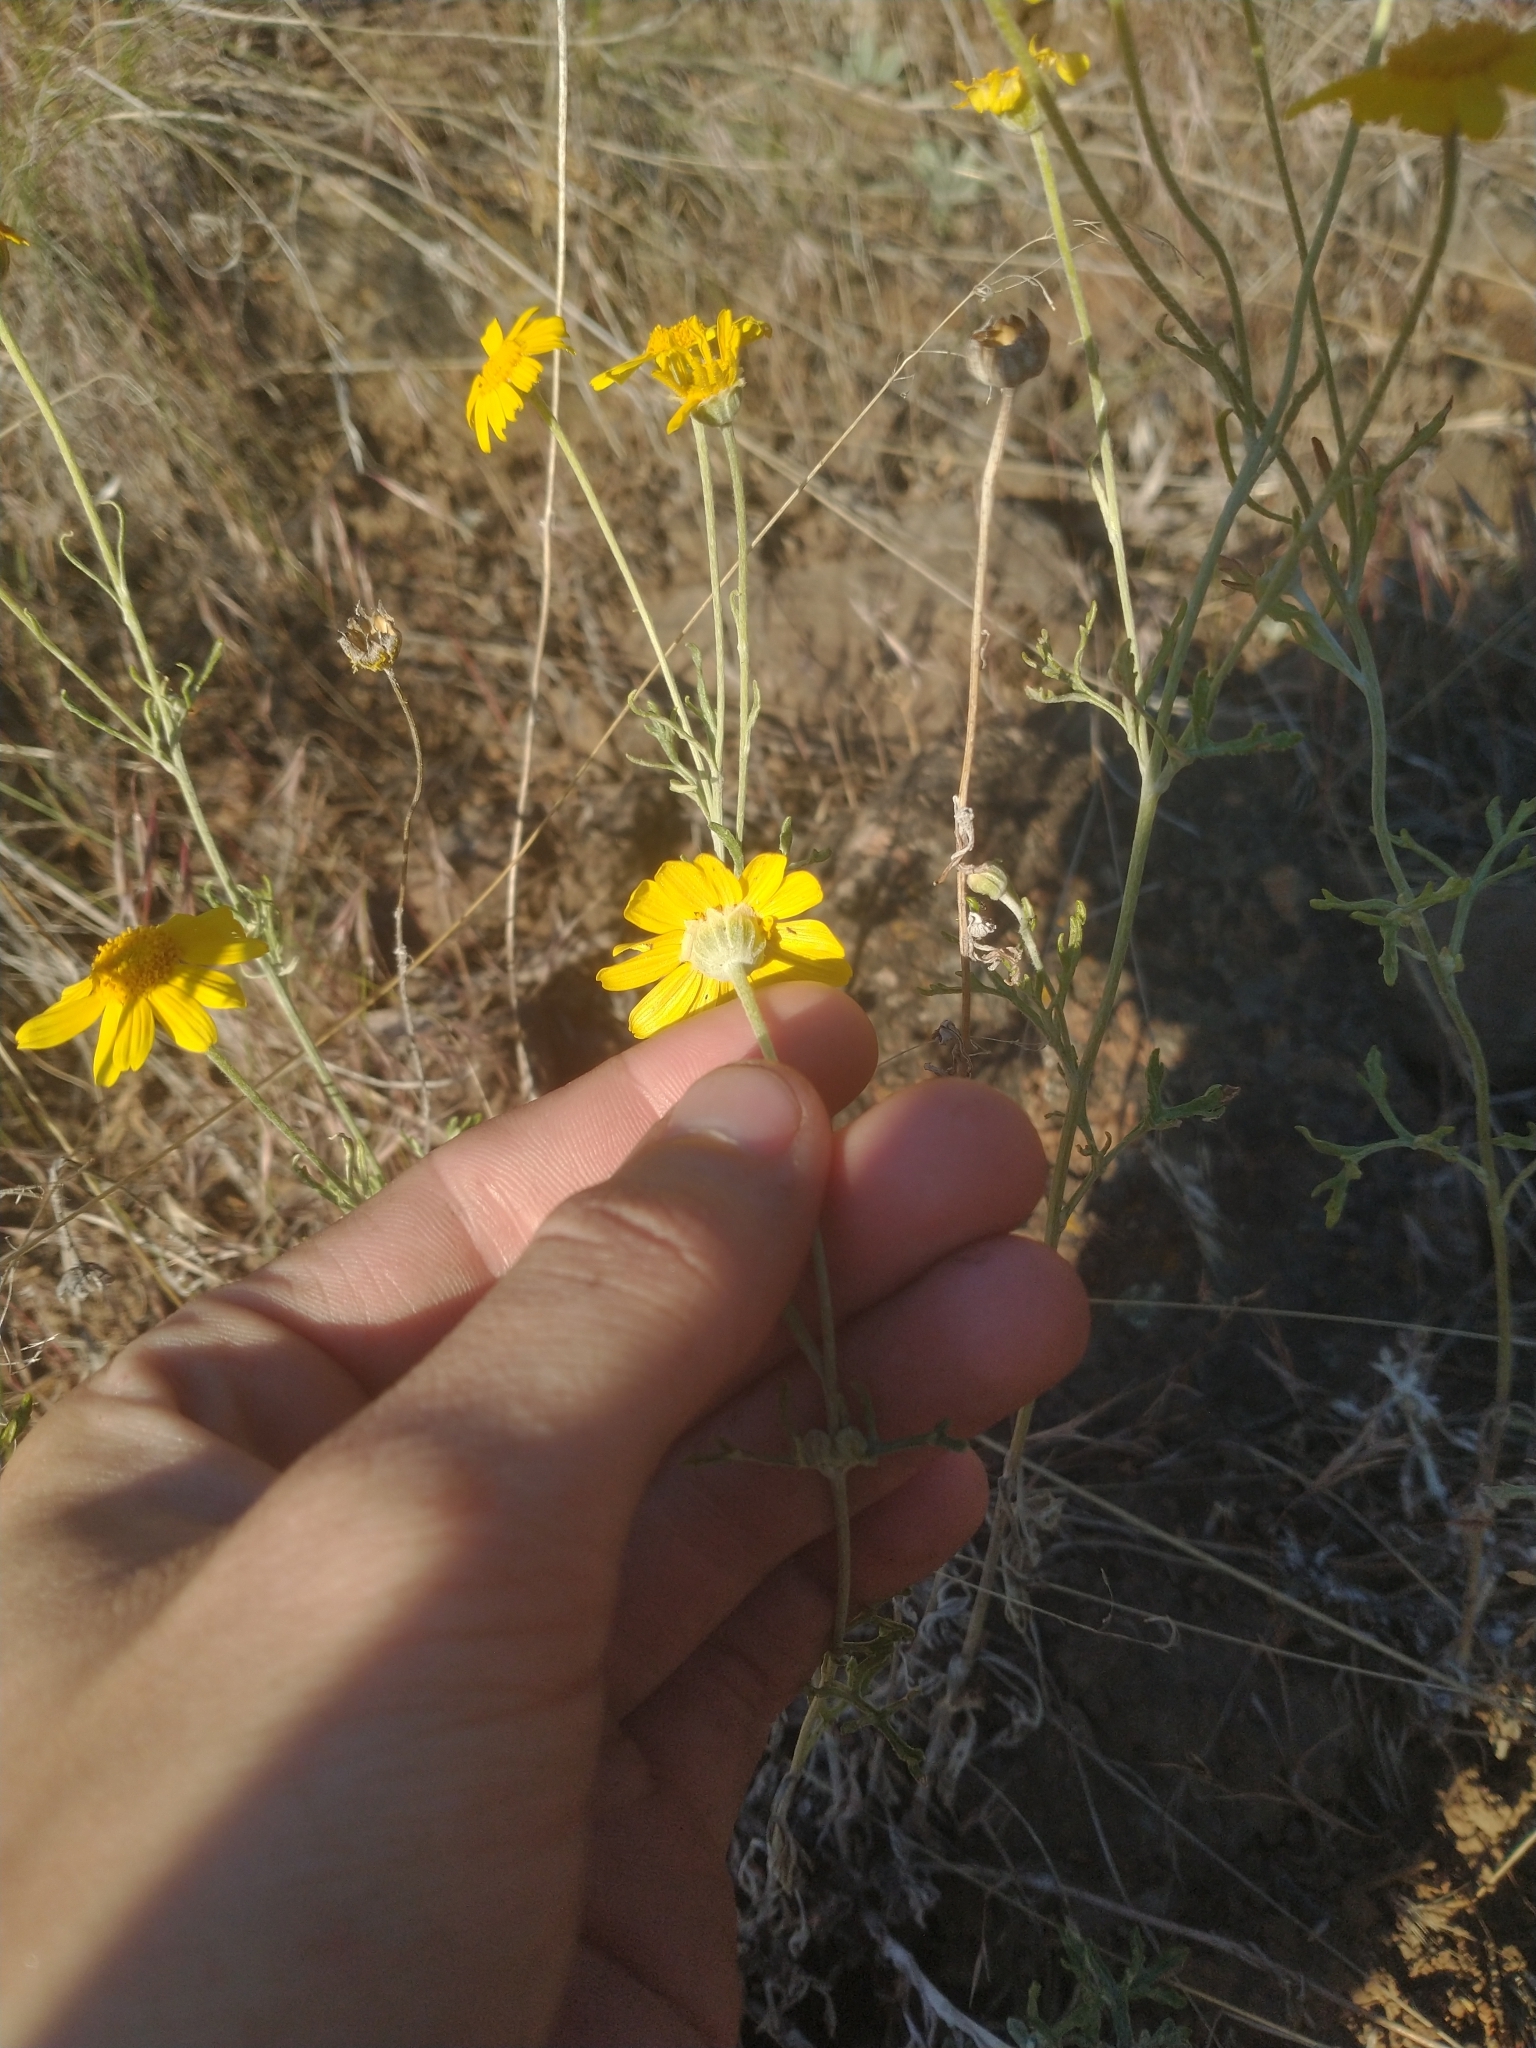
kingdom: Plantae
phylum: Tracheophyta
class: Magnoliopsida
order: Asterales
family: Asteraceae
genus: Eriophyllum
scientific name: Eriophyllum lanatum
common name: Common woolly-sunflower
